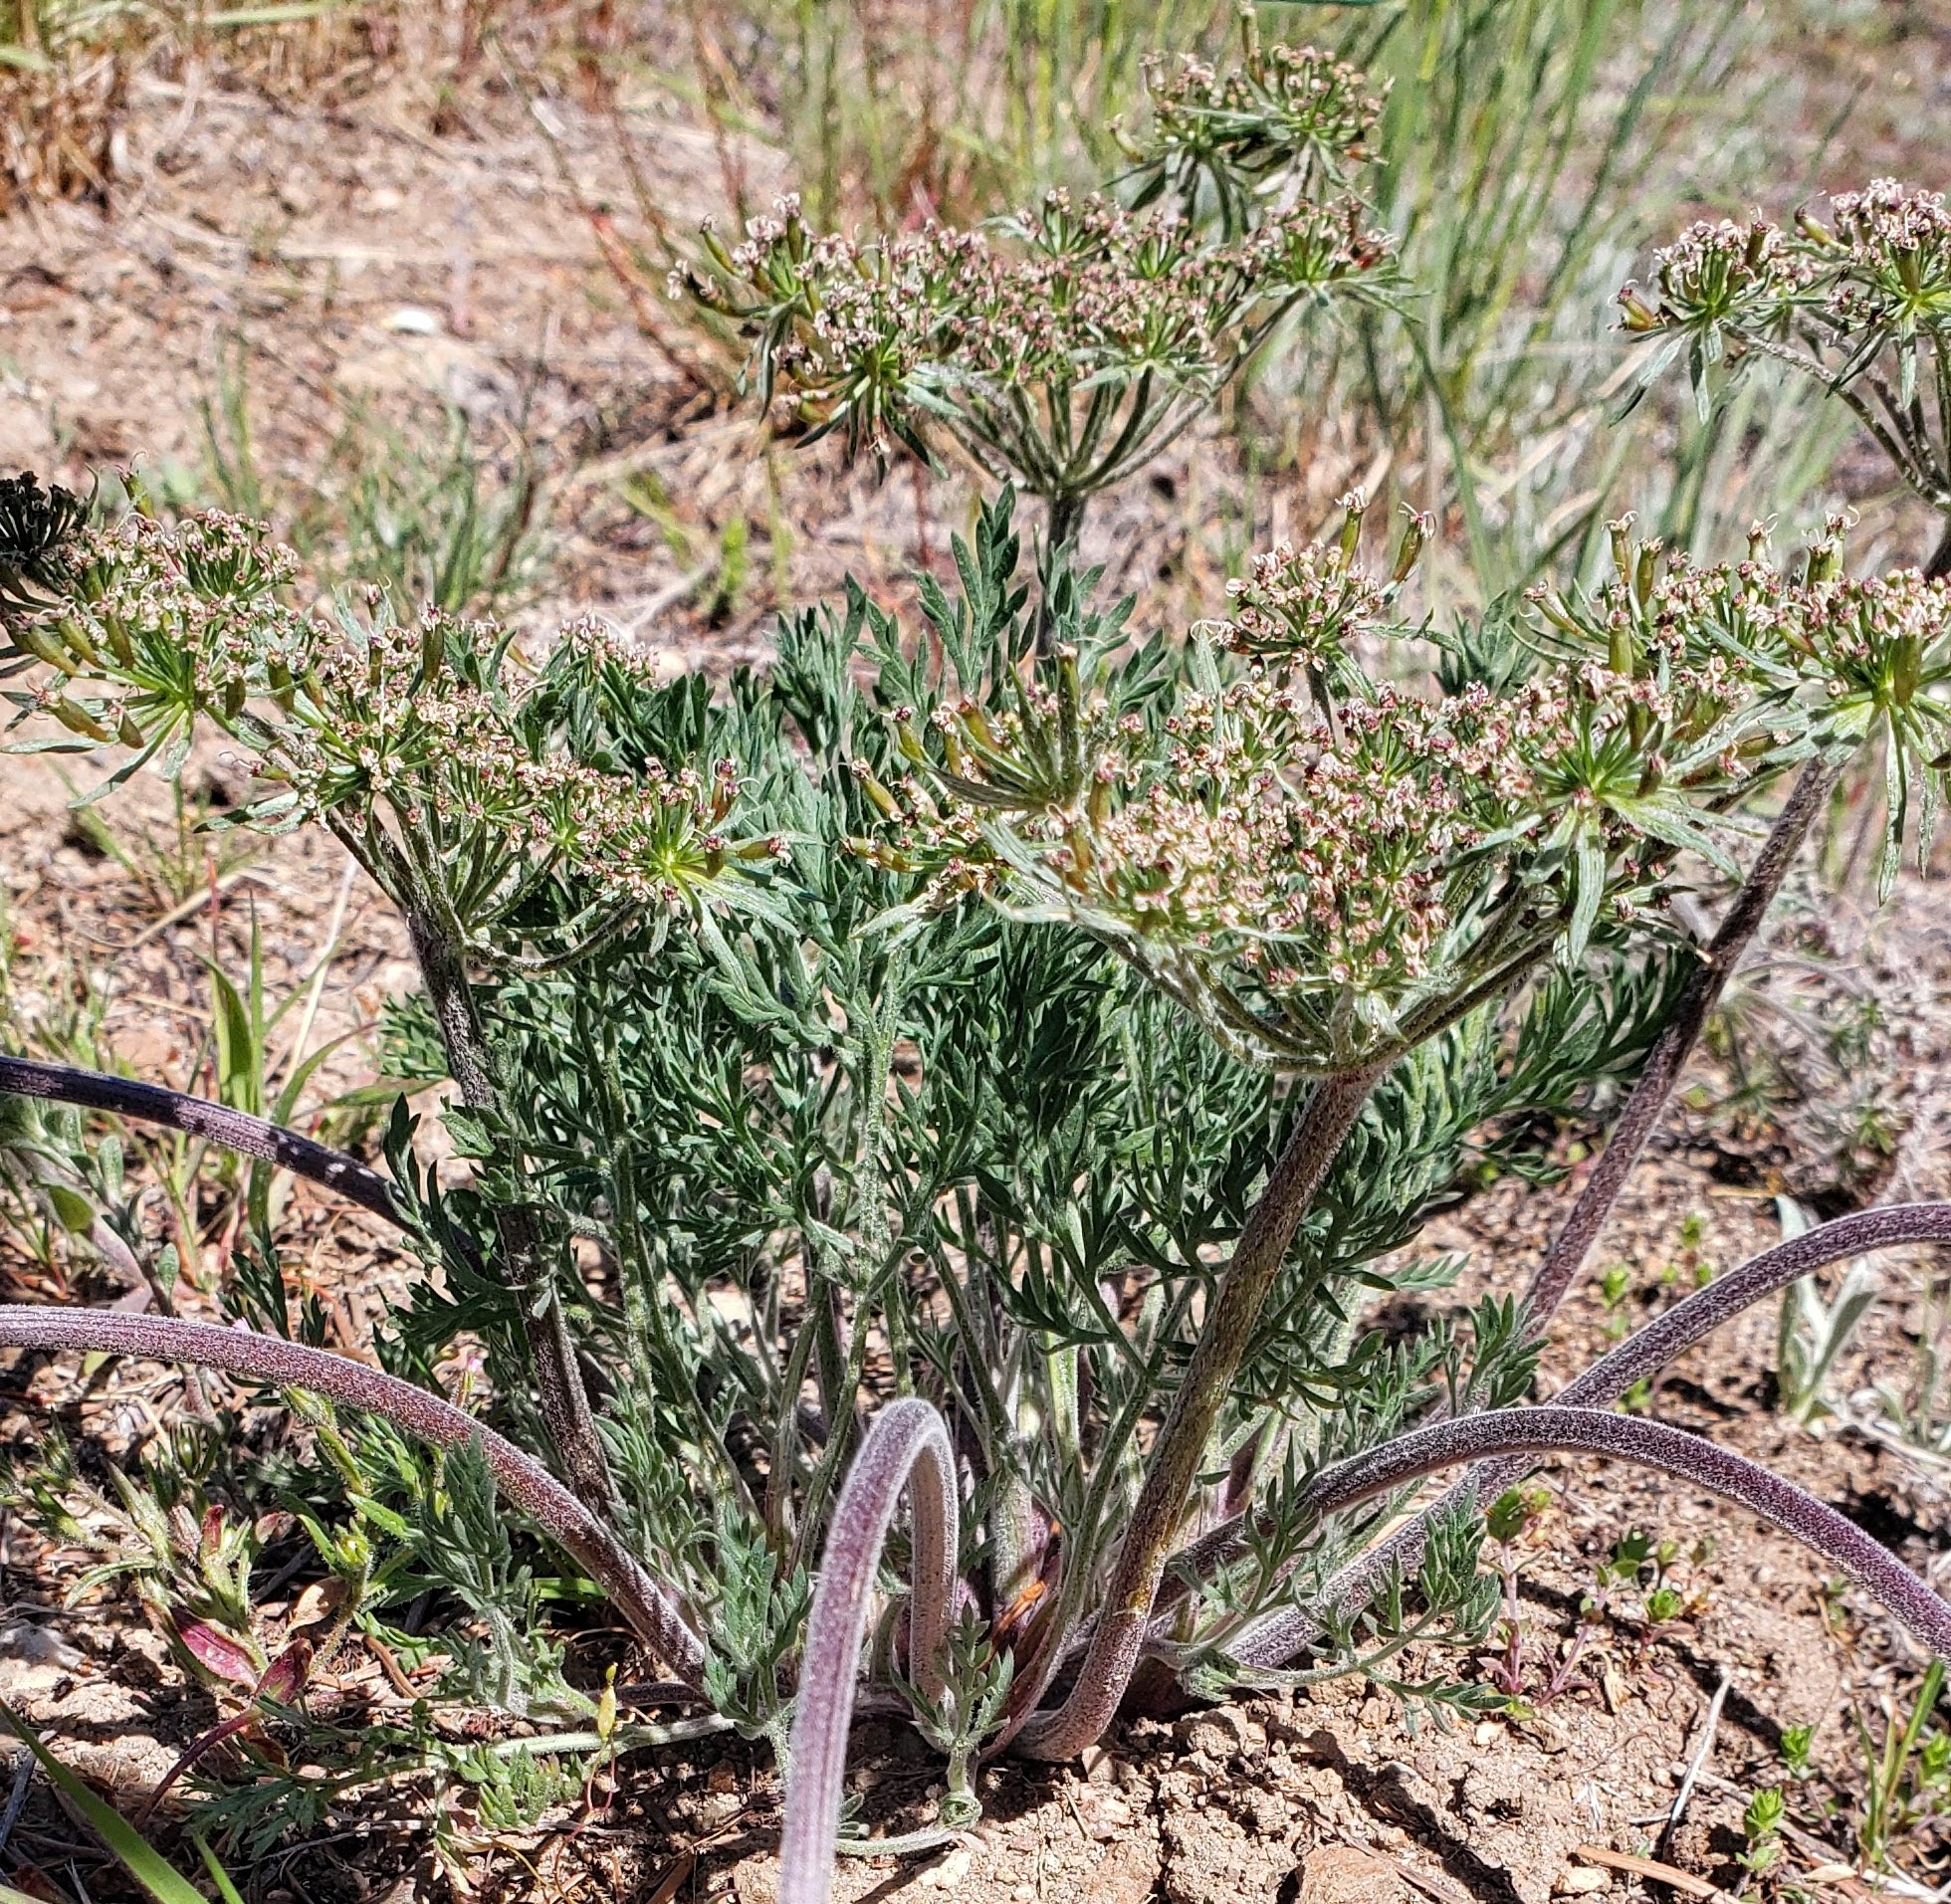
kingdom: Plantae
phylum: Tracheophyta
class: Magnoliopsida
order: Apiales
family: Apiaceae
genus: Lomatium
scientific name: Lomatium macrocarpum
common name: Big-seed biscuitroot
